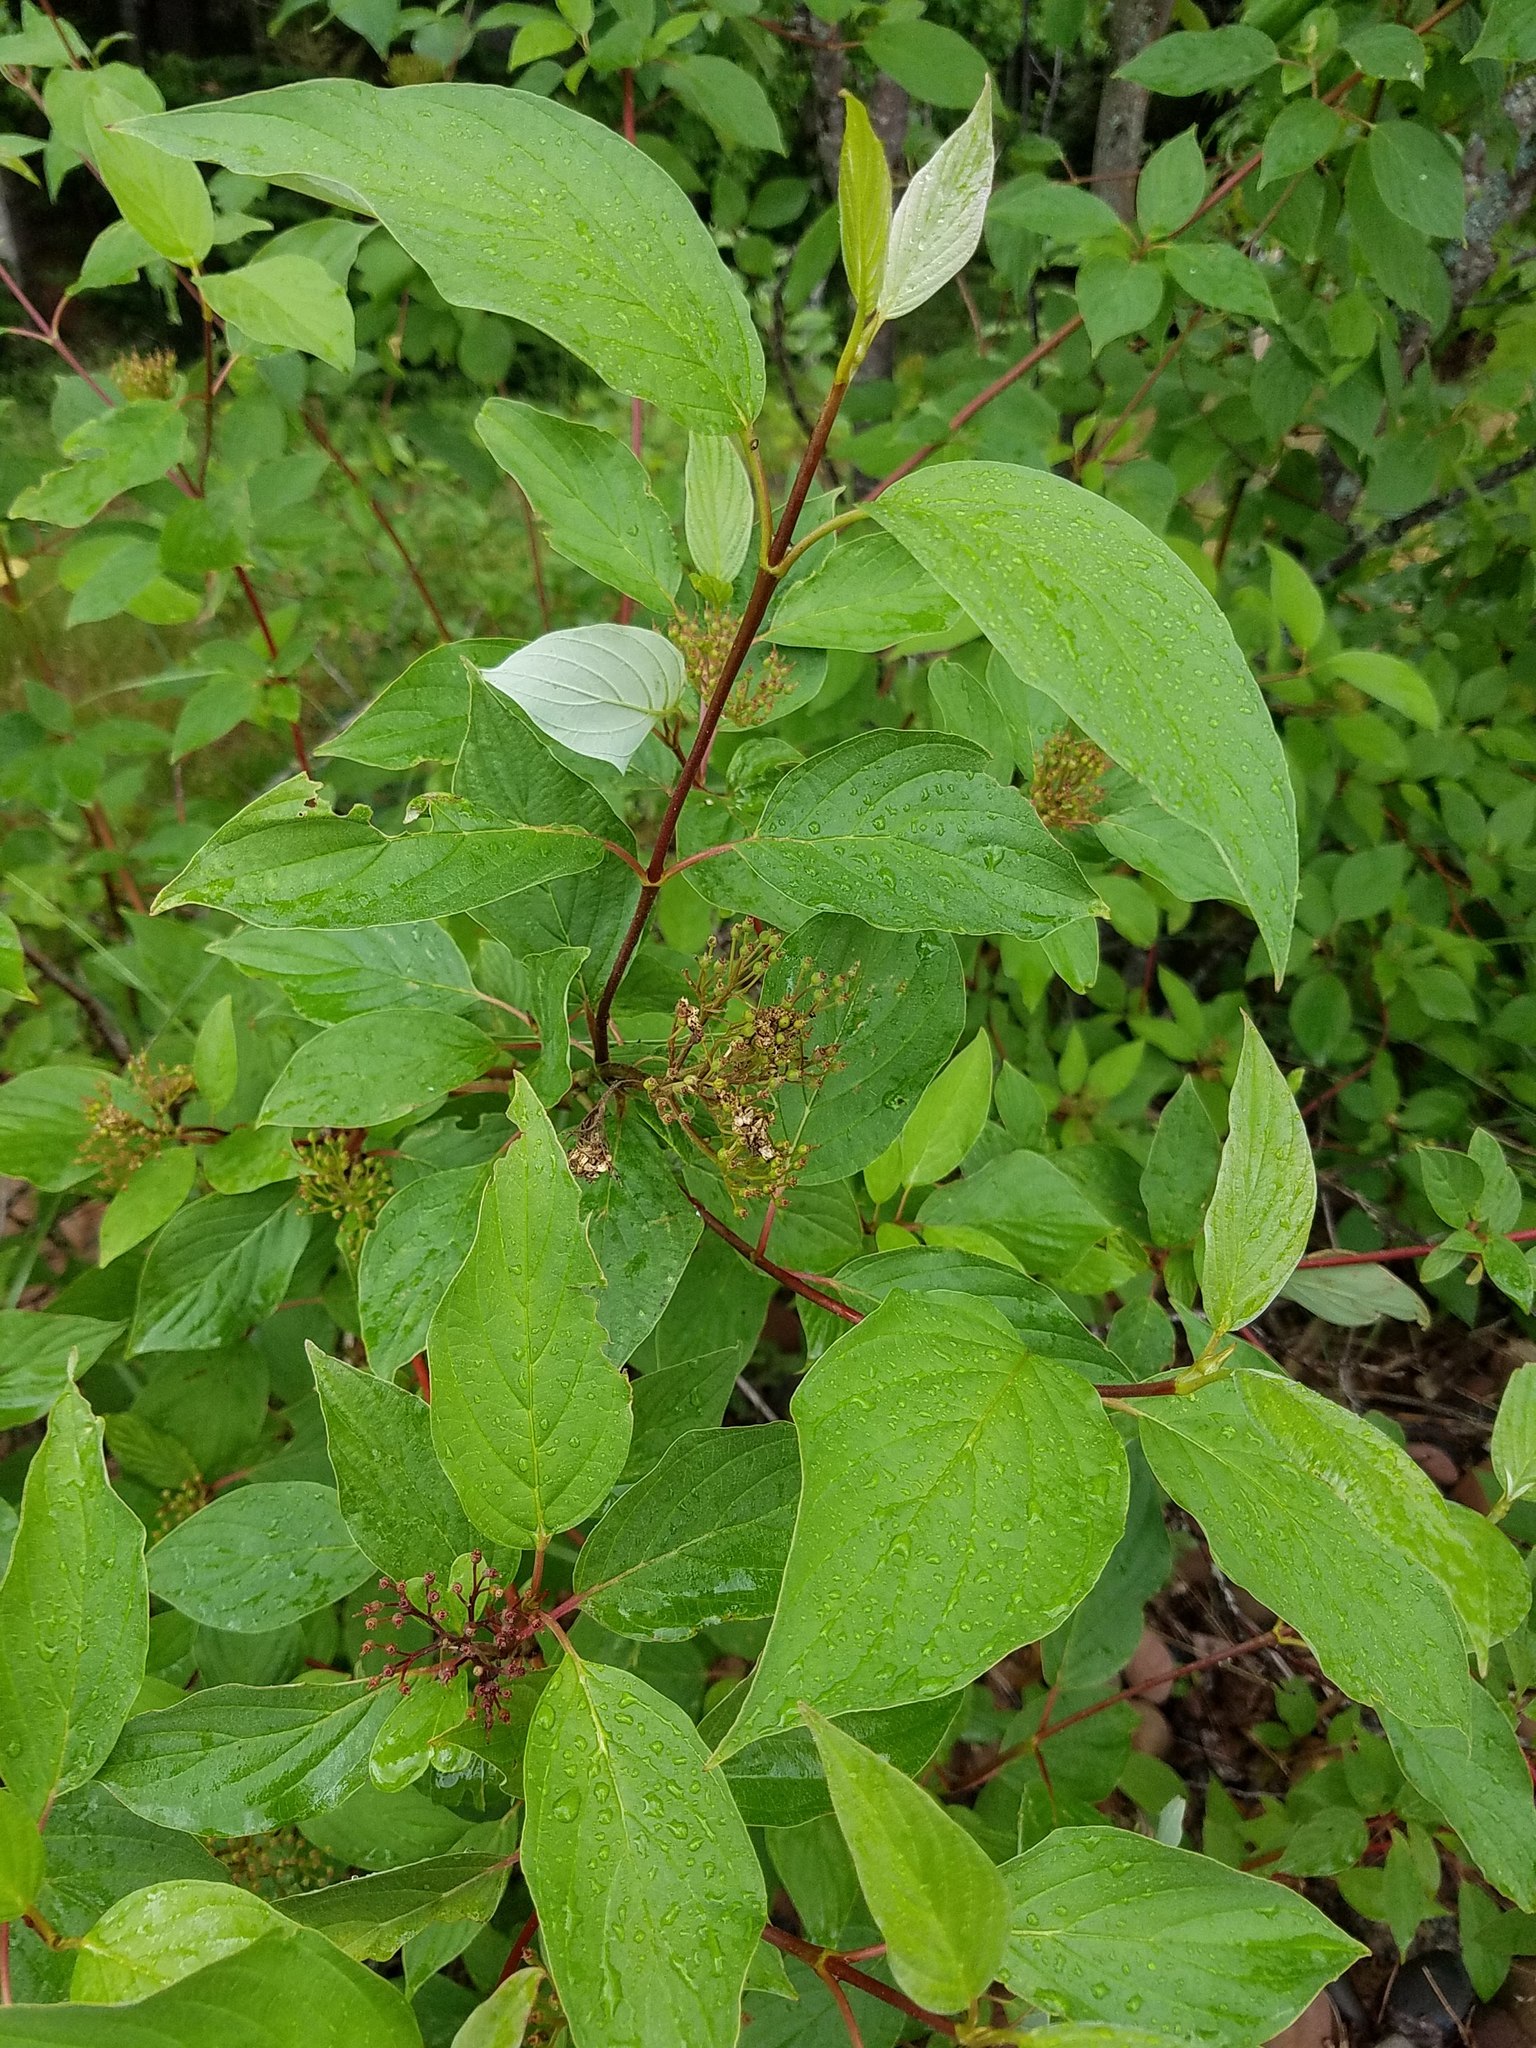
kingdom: Plantae
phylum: Tracheophyta
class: Magnoliopsida
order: Cornales
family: Cornaceae
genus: Cornus
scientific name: Cornus sericea
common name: Red-osier dogwood
